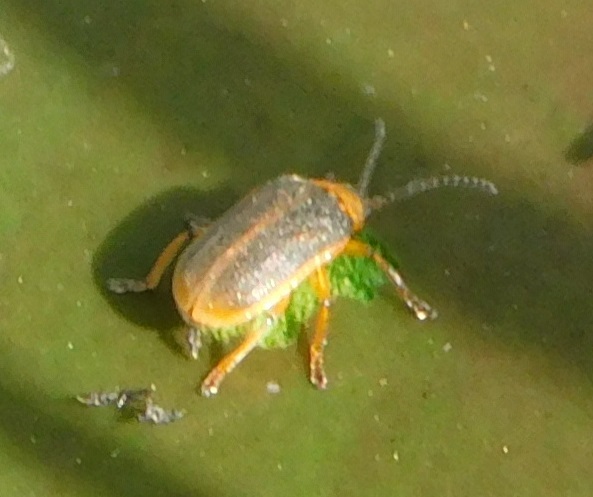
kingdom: Animalia
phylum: Arthropoda
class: Insecta
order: Coleoptera
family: Chrysomelidae
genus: Galerucella
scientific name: Galerucella nymphaeae
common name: Leaf beetle
